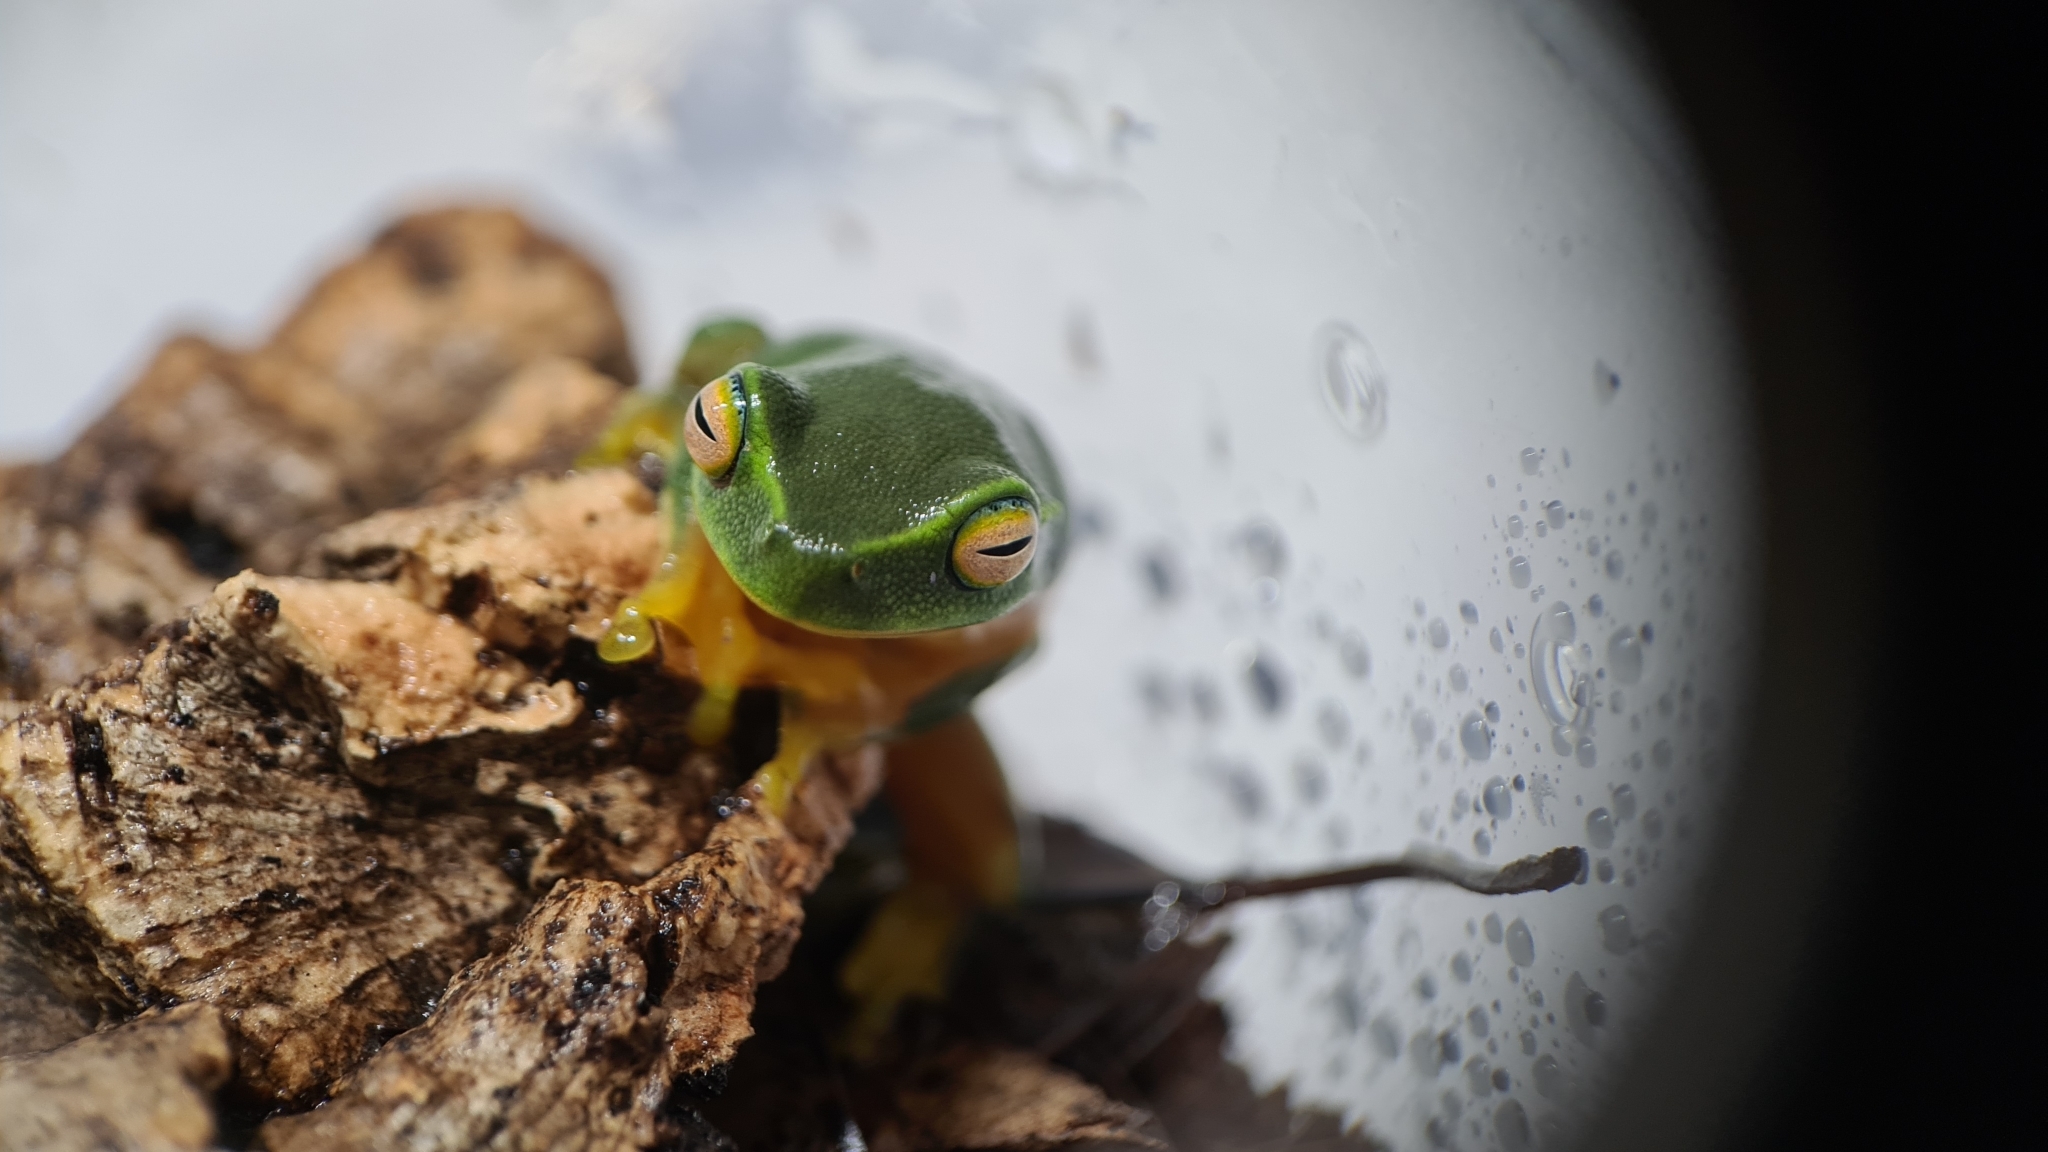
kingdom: Animalia
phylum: Chordata
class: Amphibia
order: Anura
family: Pelodryadidae
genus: Ranoidea
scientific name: Ranoidea gracilenta
